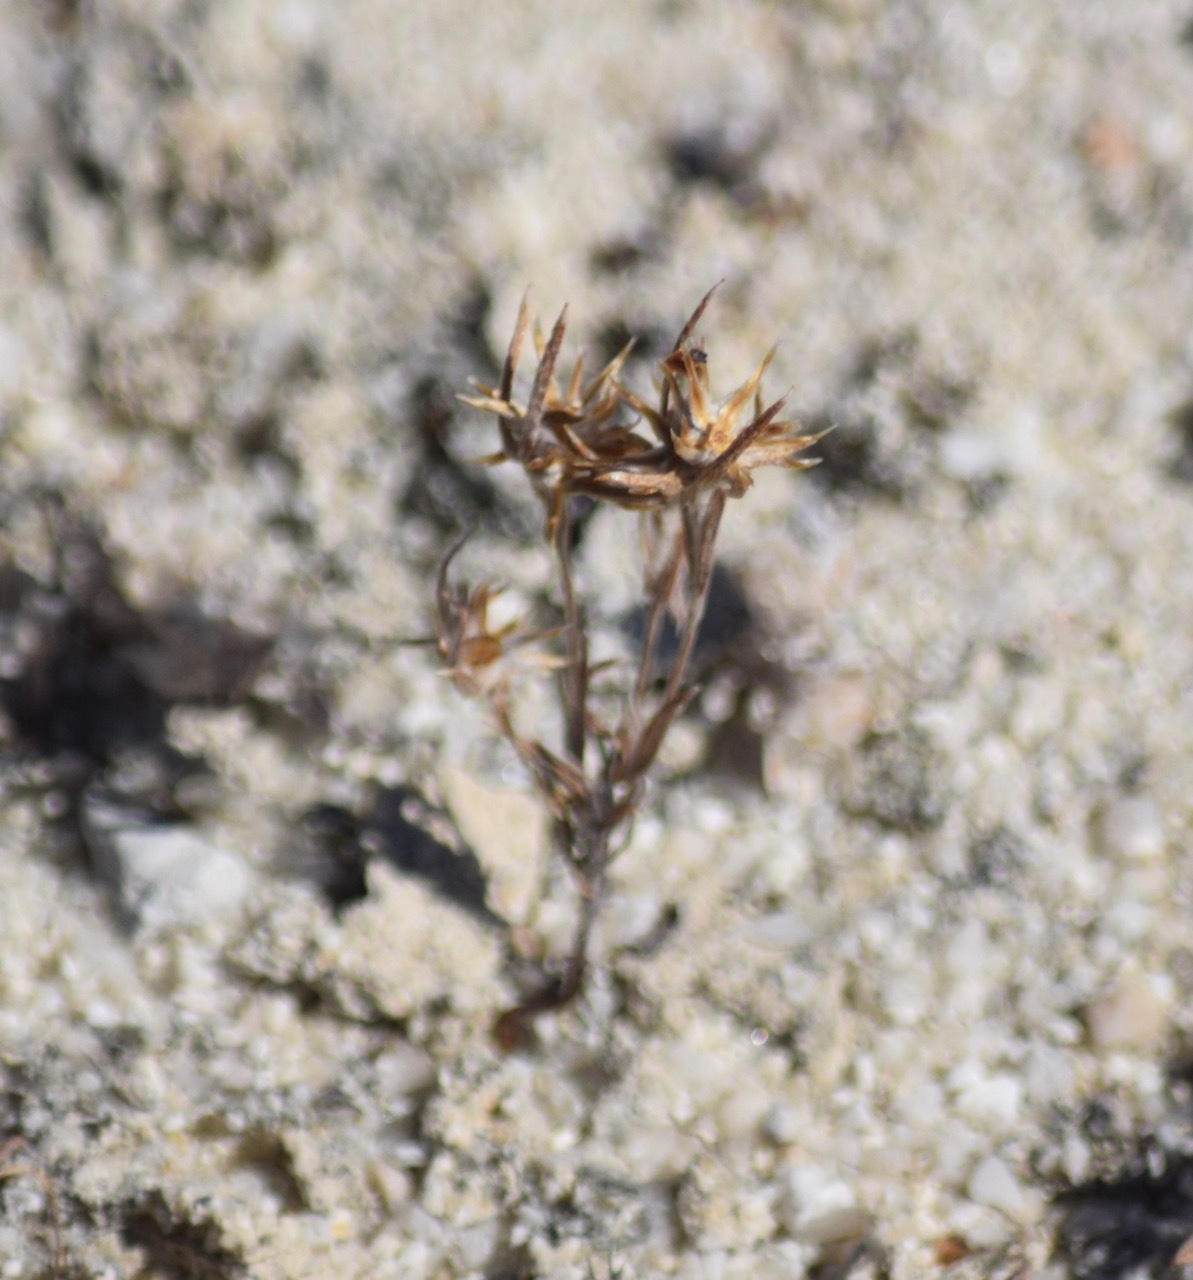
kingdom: Plantae
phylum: Tracheophyta
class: Magnoliopsida
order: Asterales
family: Asteraceae
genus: Logfia
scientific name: Logfia gallica
